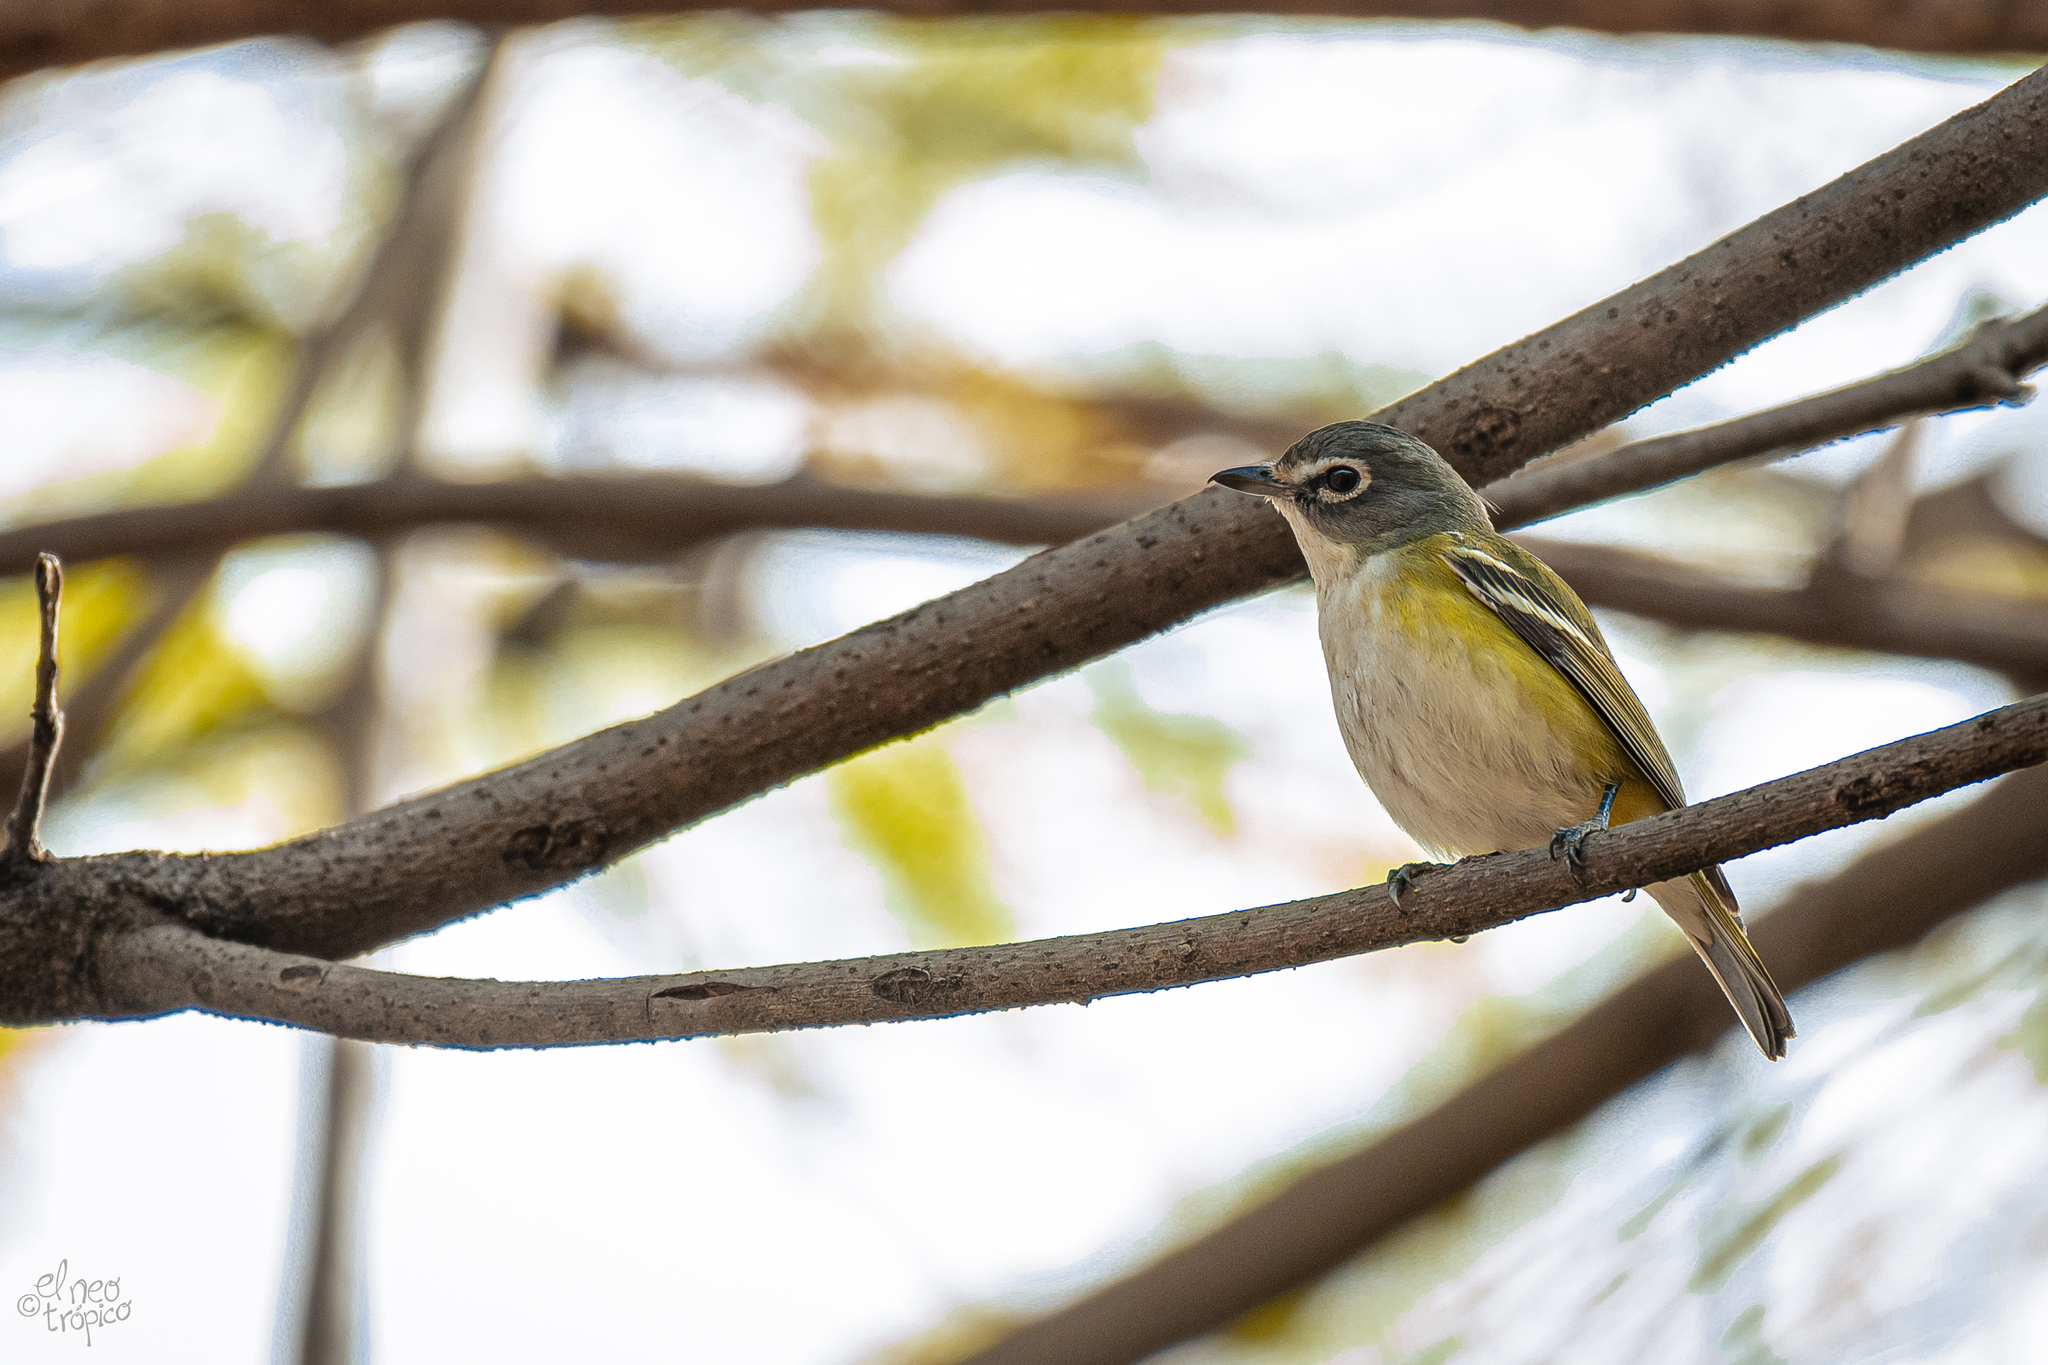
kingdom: Animalia
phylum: Chordata
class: Aves
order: Passeriformes
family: Vireonidae
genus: Vireo
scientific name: Vireo solitarius
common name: Blue-headed vireo
